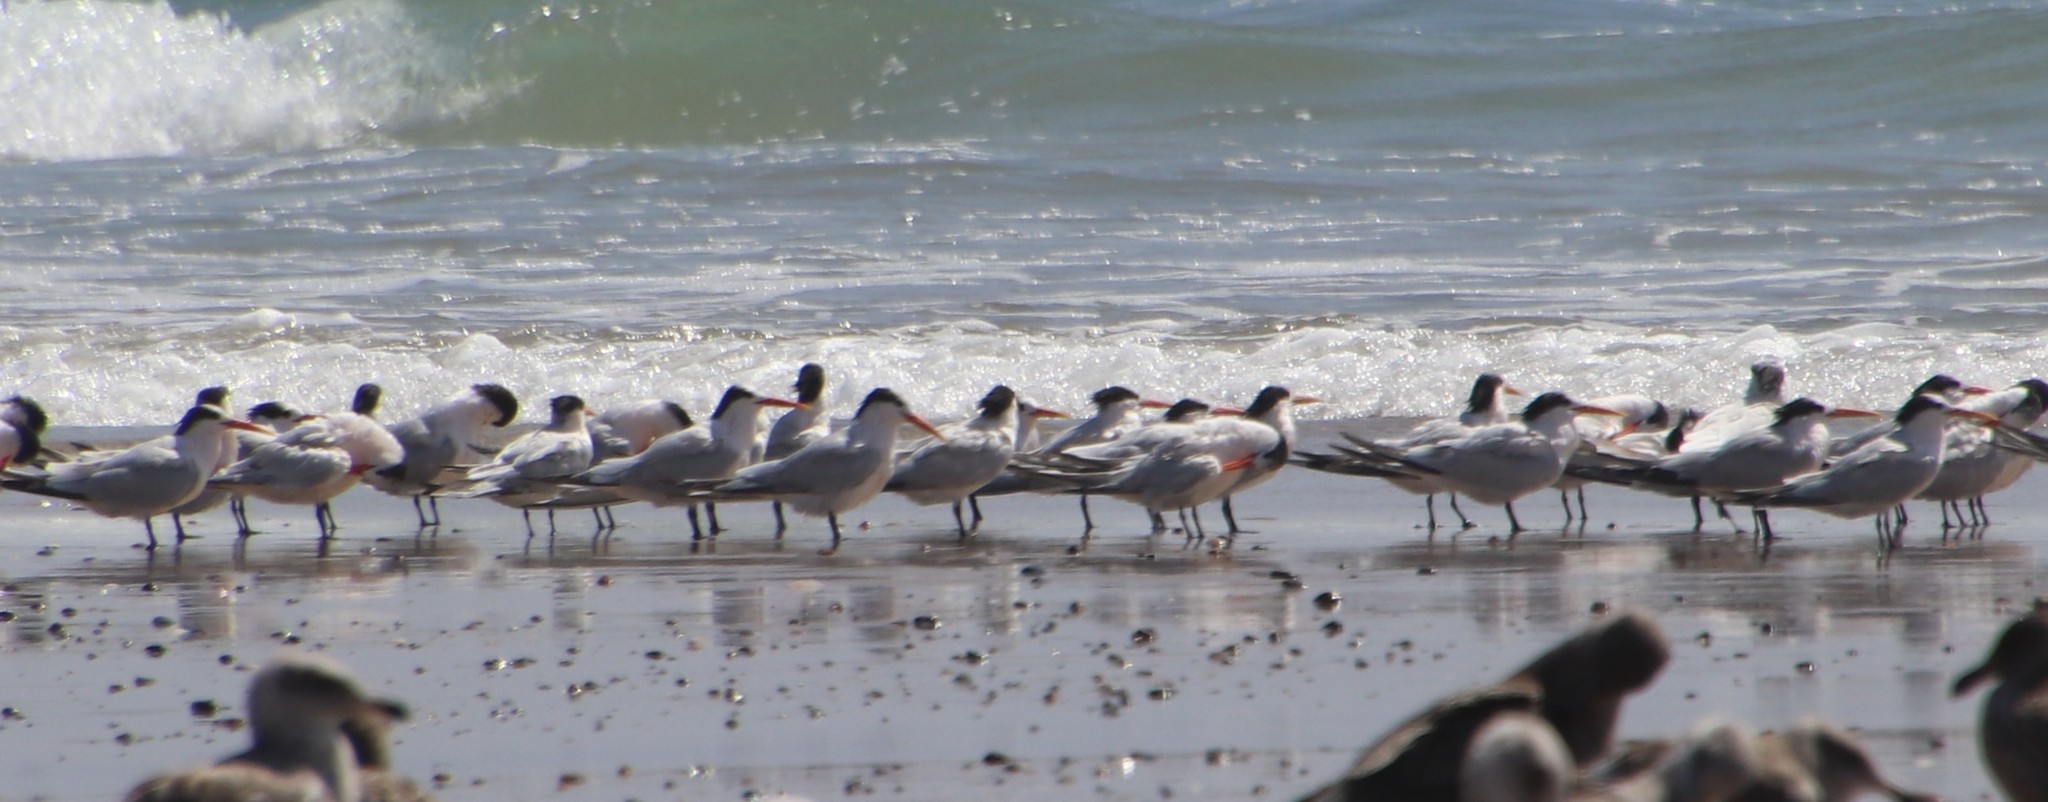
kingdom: Animalia
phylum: Chordata
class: Aves
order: Charadriiformes
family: Laridae
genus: Thalasseus
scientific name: Thalasseus elegans
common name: Elegant tern
